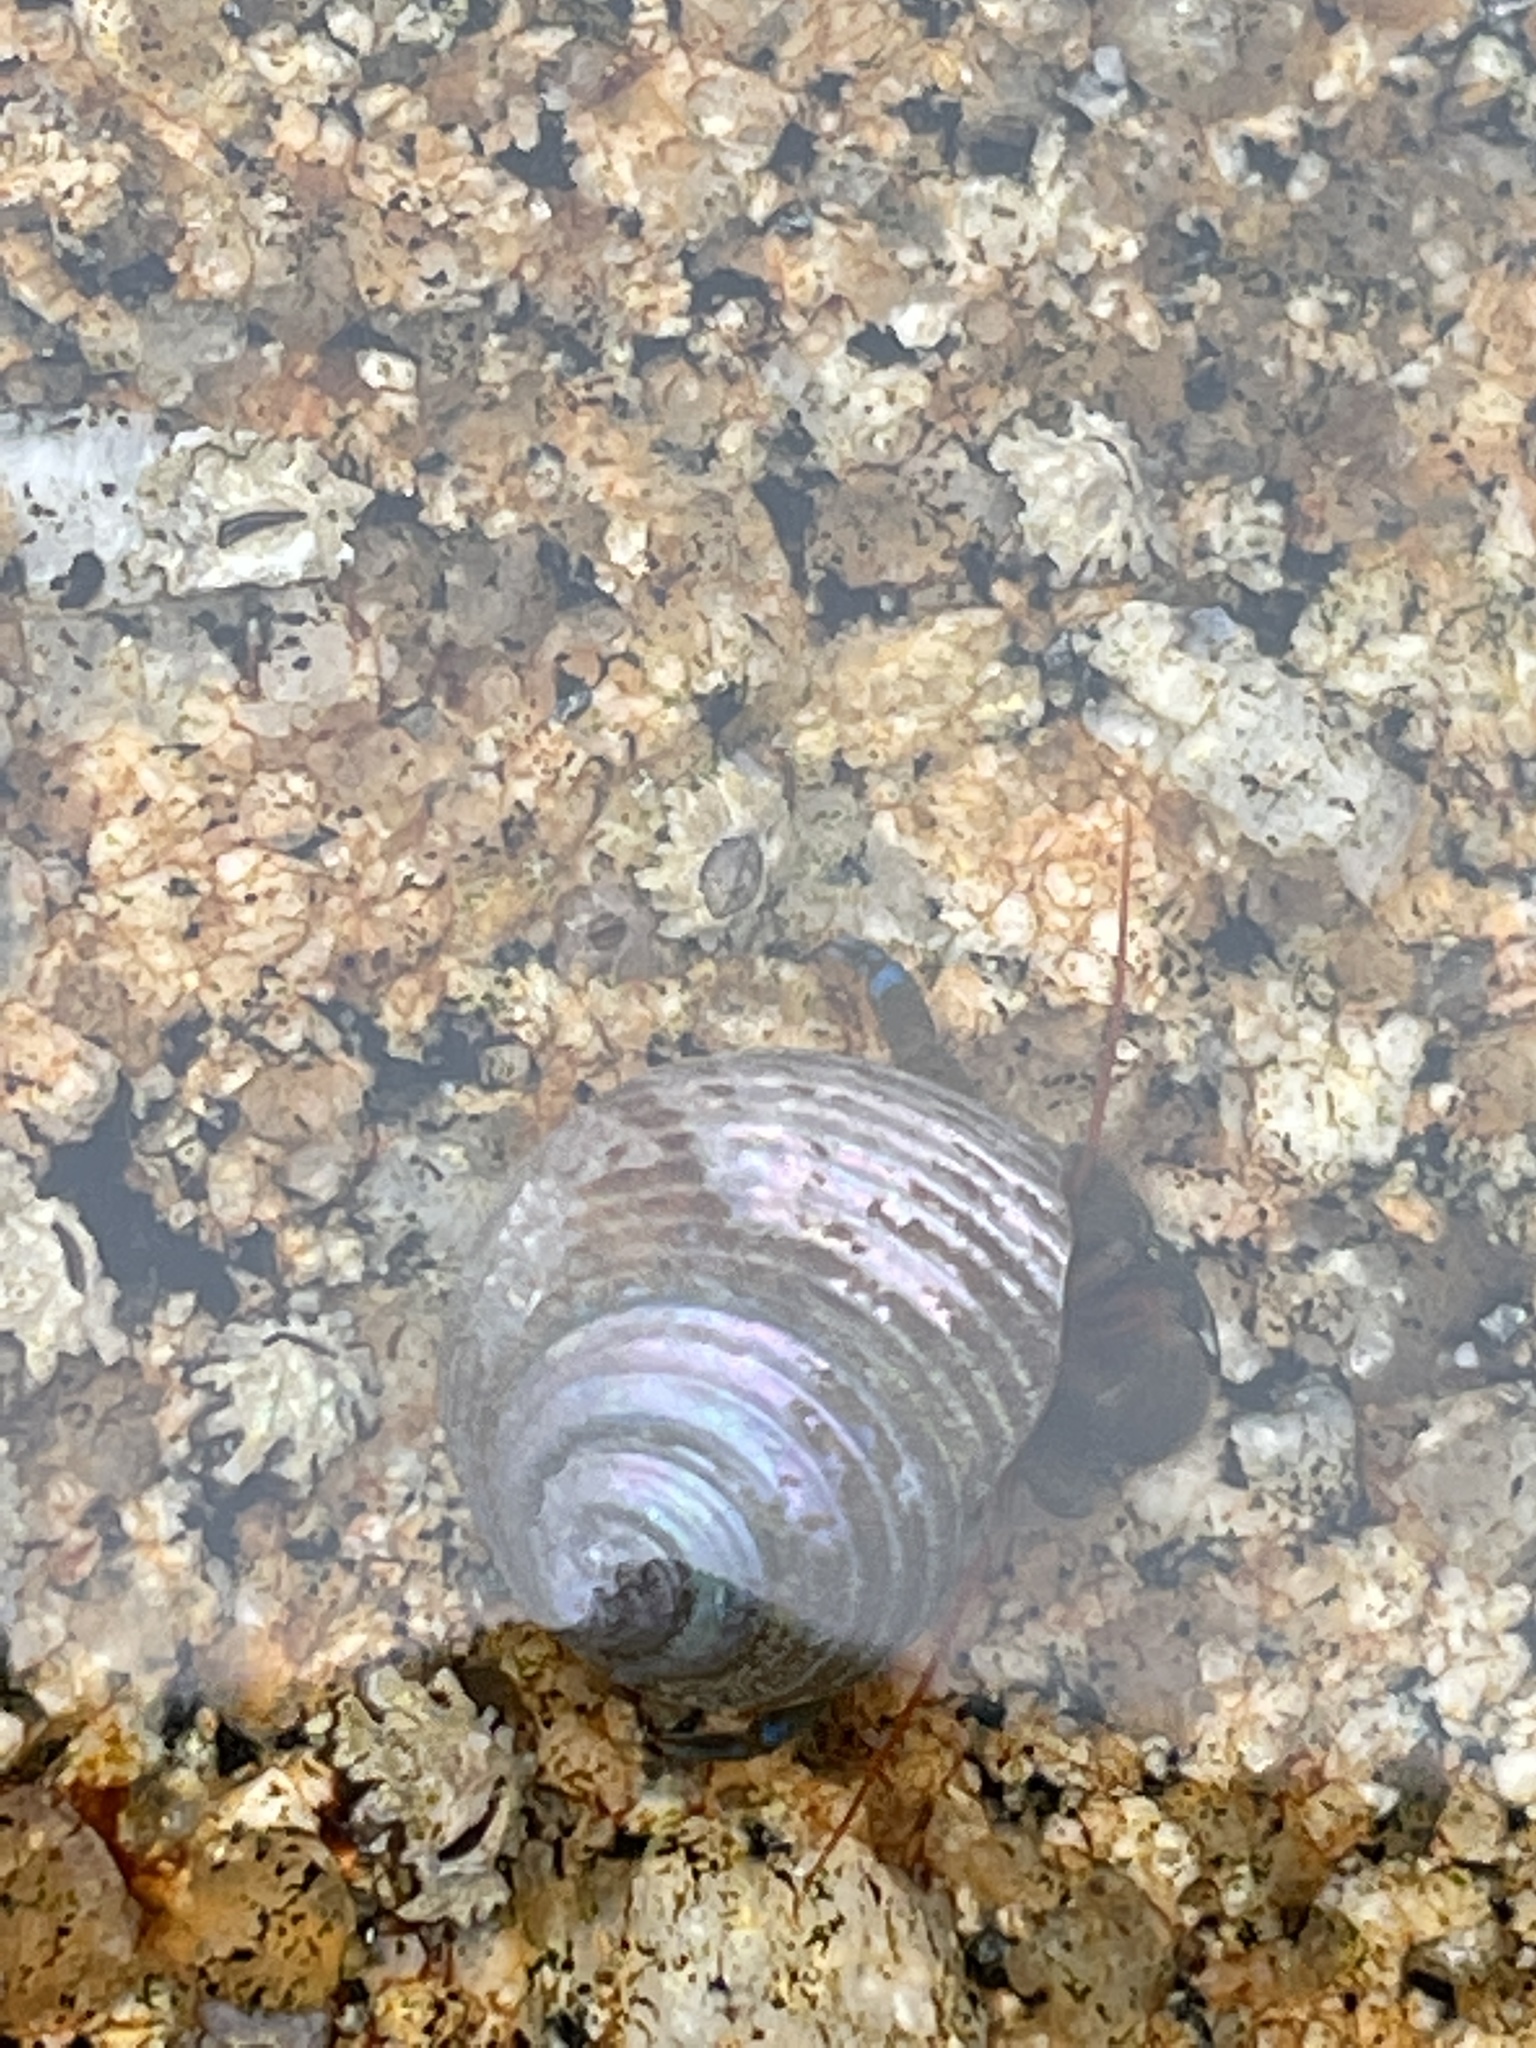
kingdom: Animalia
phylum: Arthropoda
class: Malacostraca
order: Decapoda
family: Paguridae
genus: Pagurus
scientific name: Pagurus samuelis
